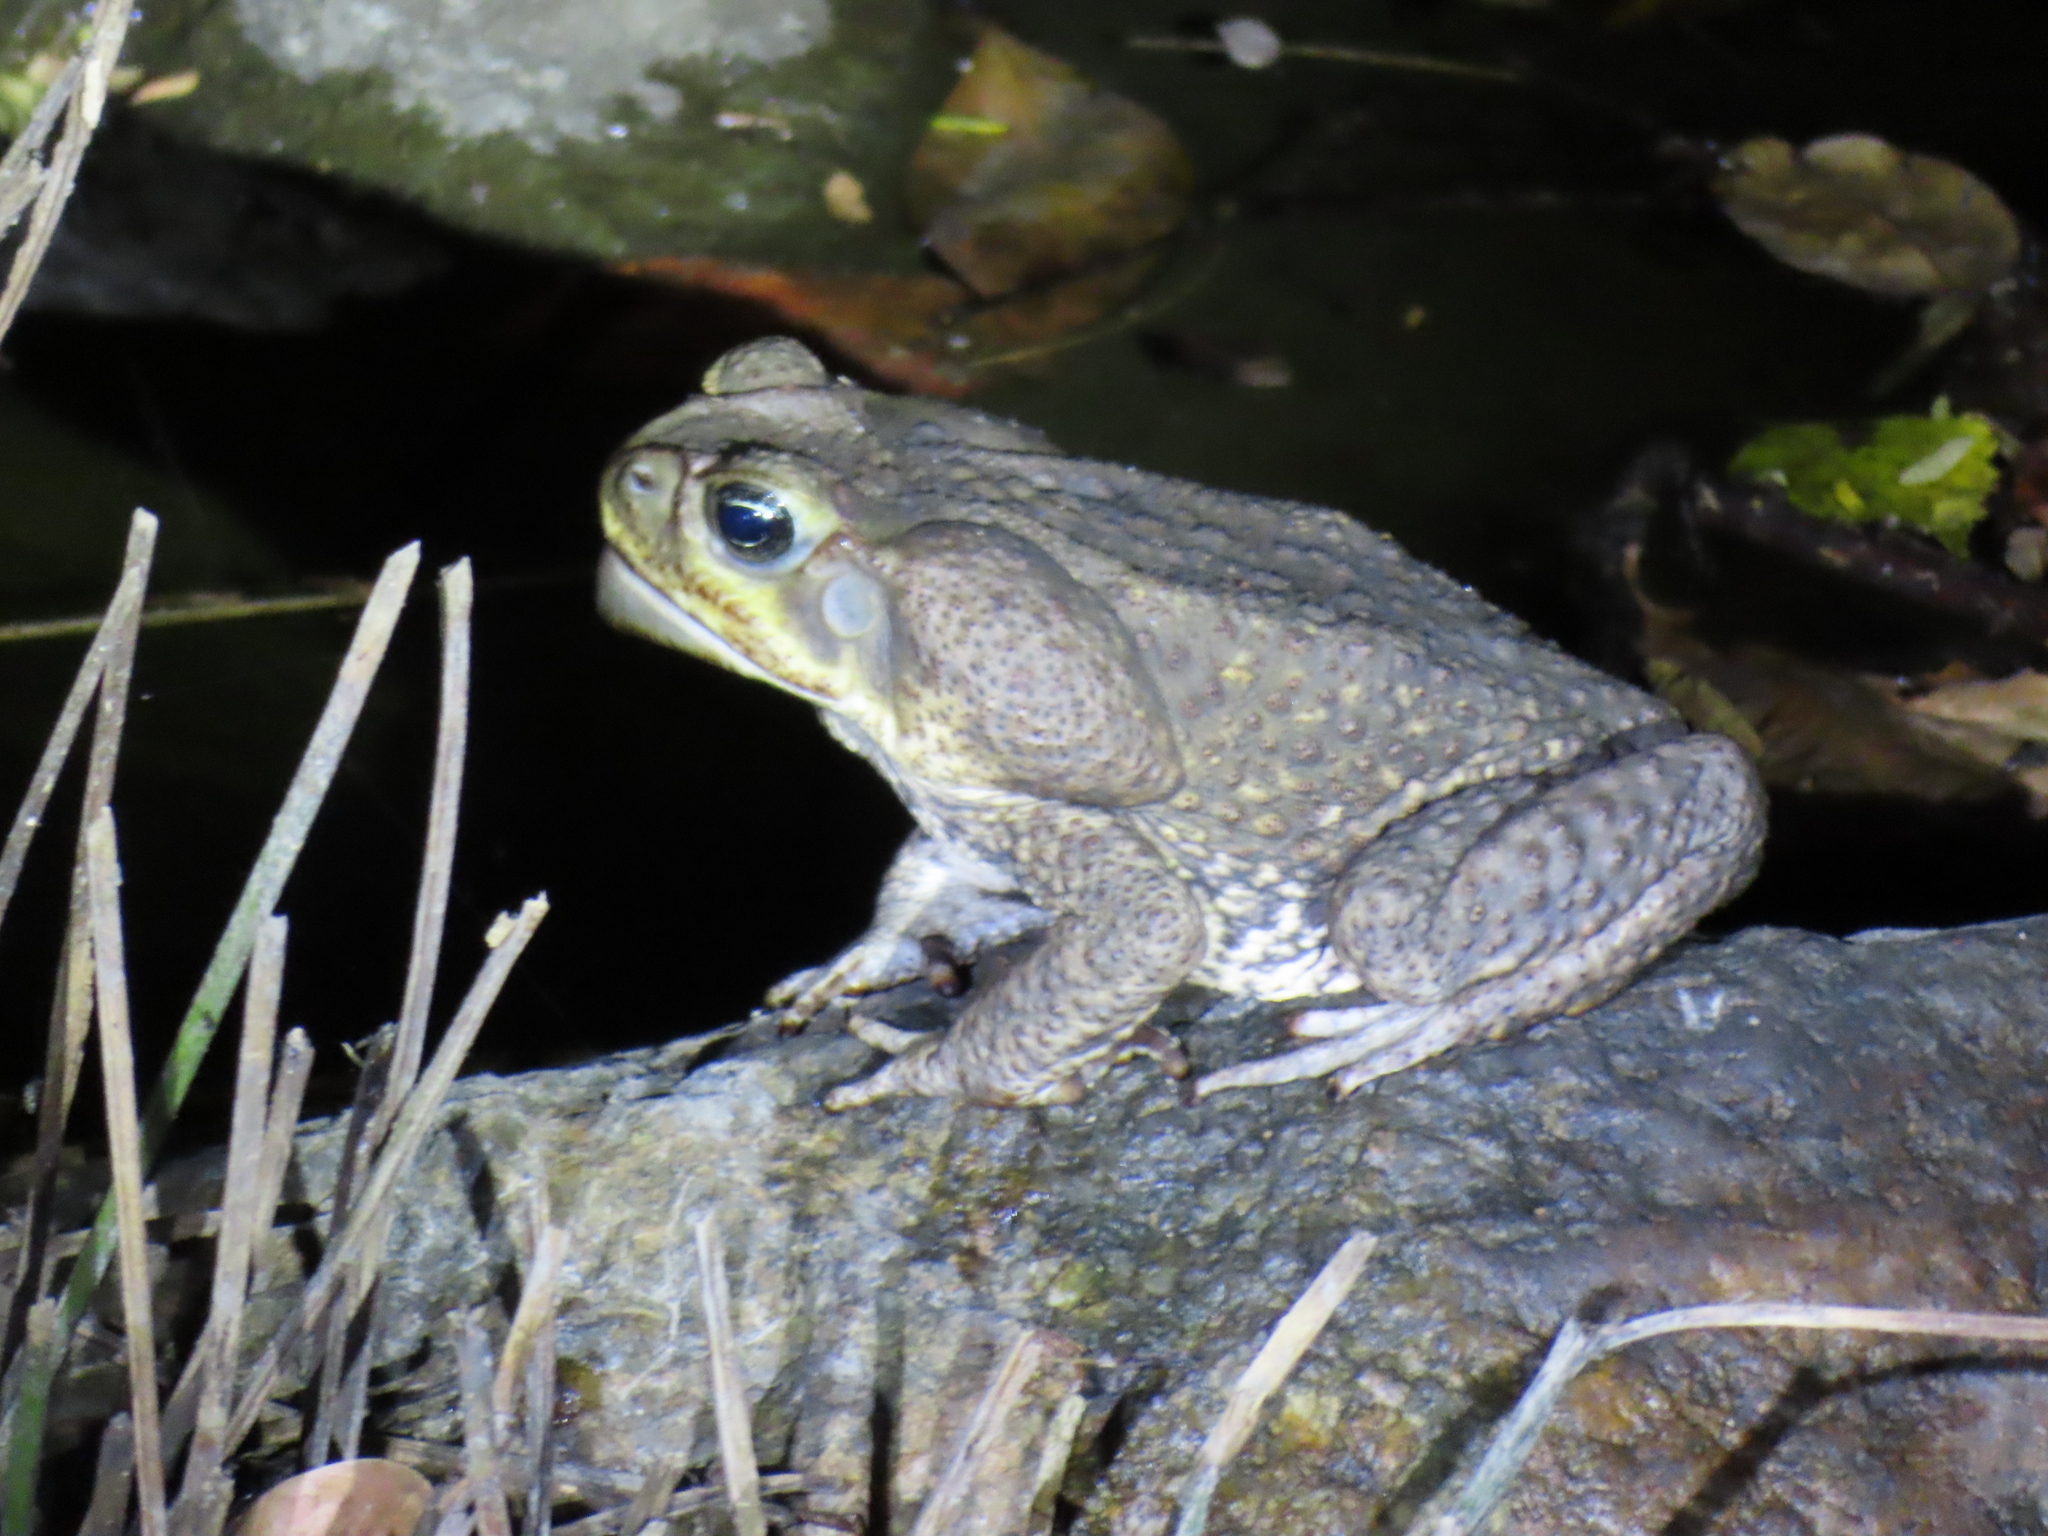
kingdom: Animalia
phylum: Chordata
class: Amphibia
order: Anura
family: Bufonidae
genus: Rhinella
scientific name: Rhinella horribilis
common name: Mesoamerican cane toad
